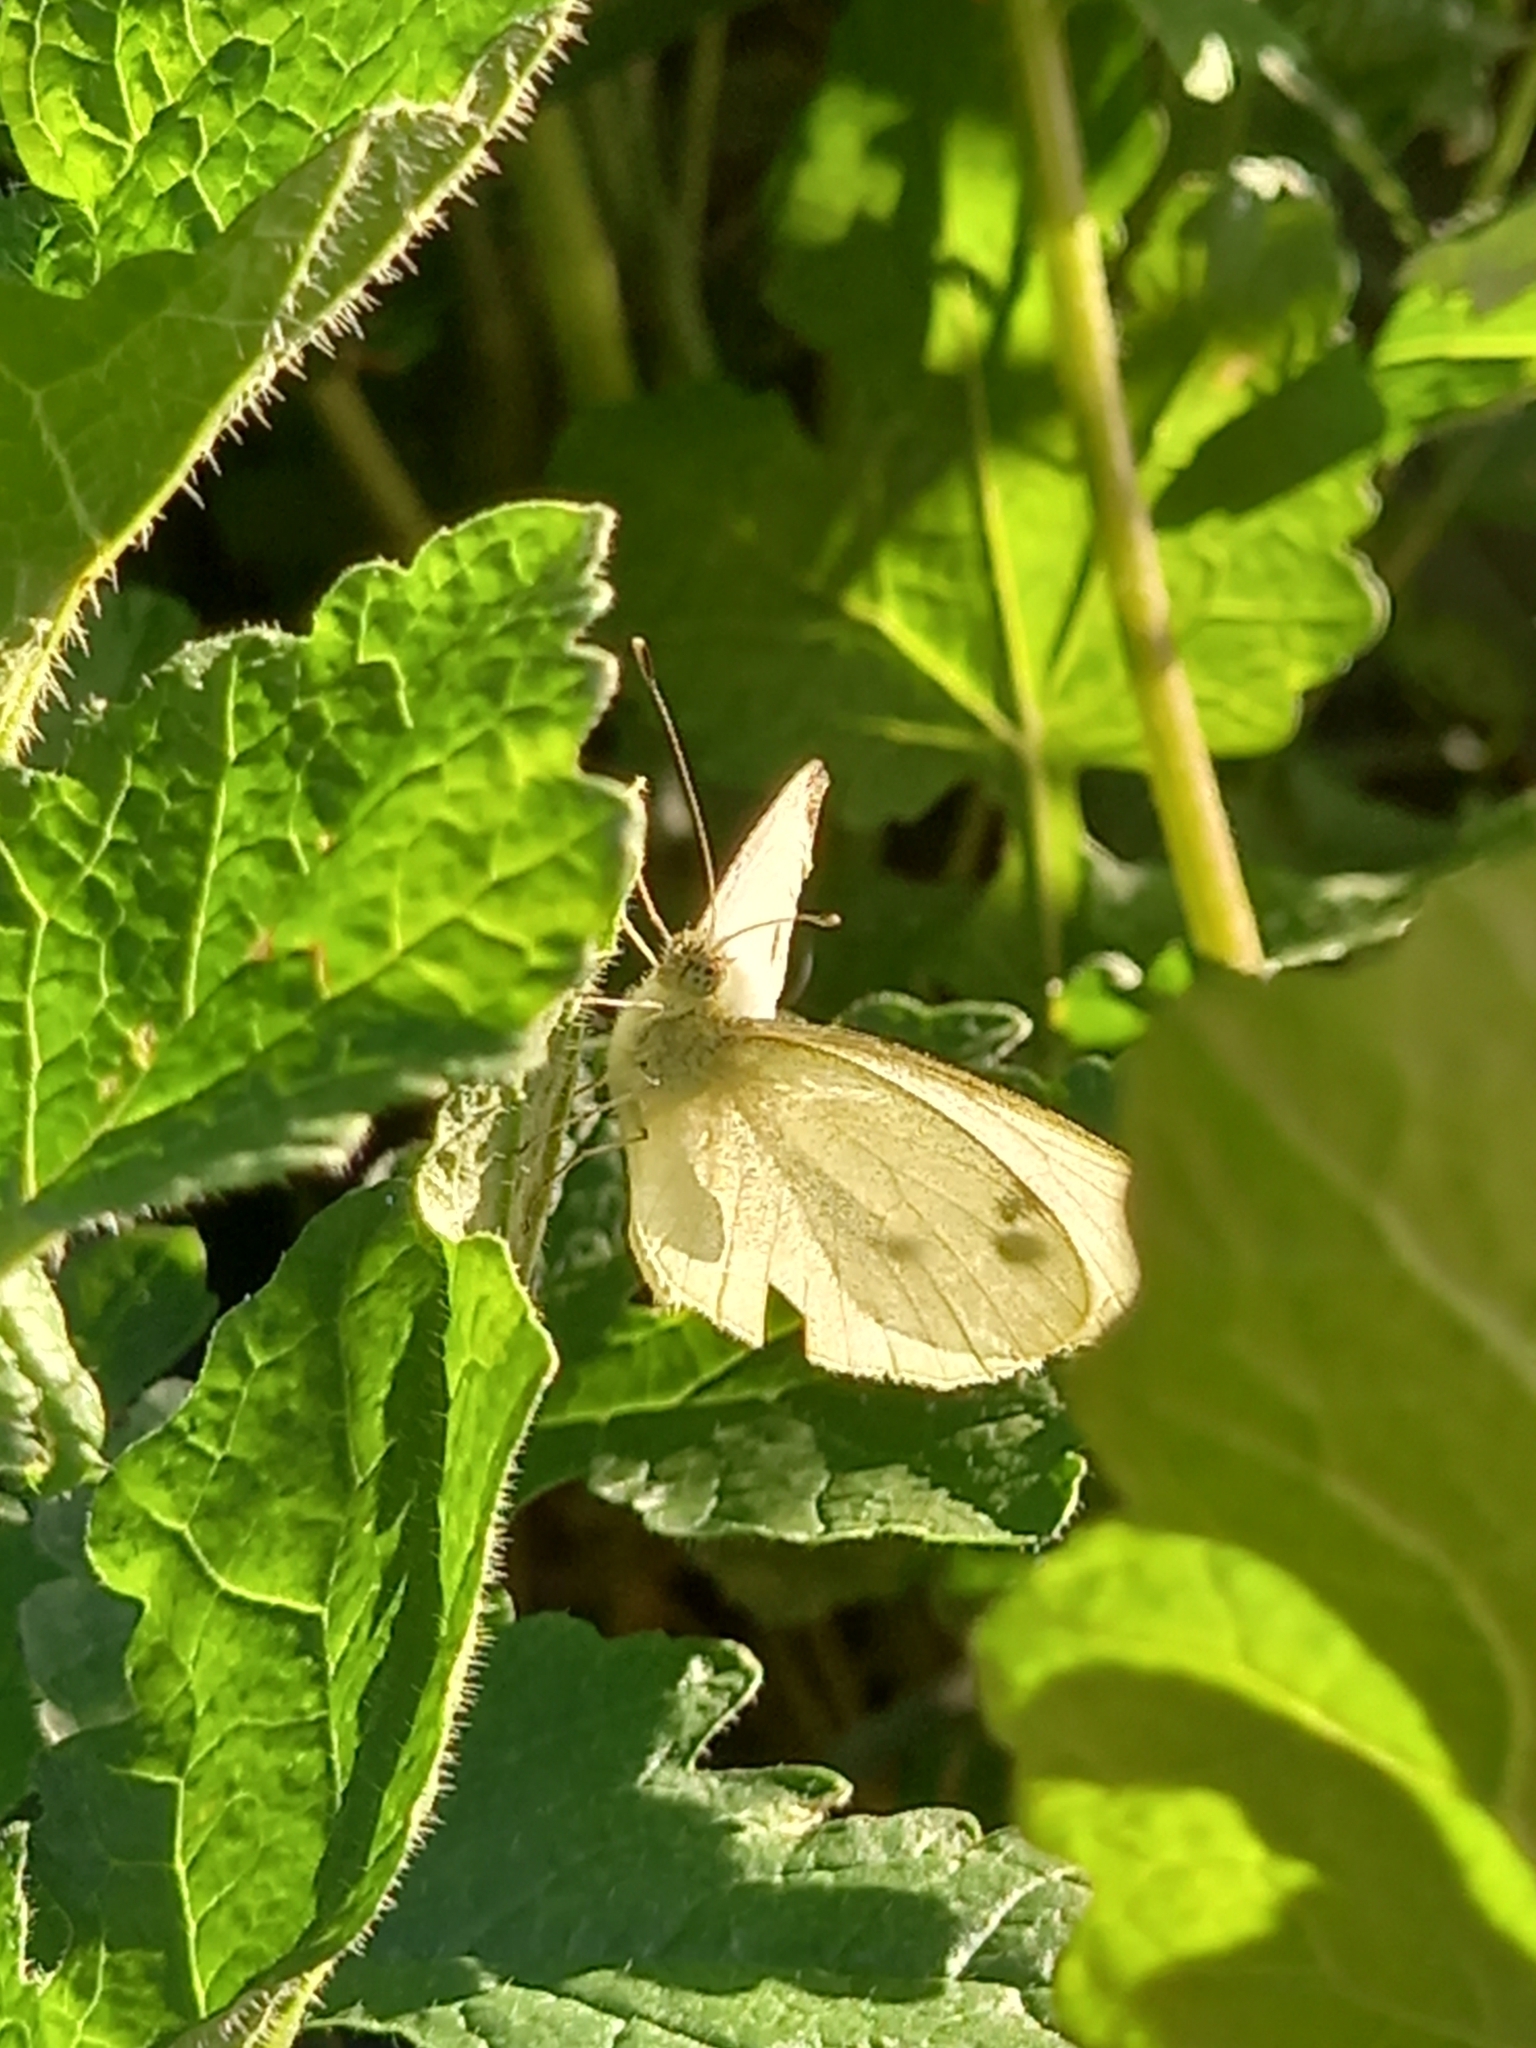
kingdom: Animalia
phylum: Arthropoda
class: Insecta
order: Lepidoptera
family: Pieridae
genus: Pieris
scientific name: Pieris rapae
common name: Small white
